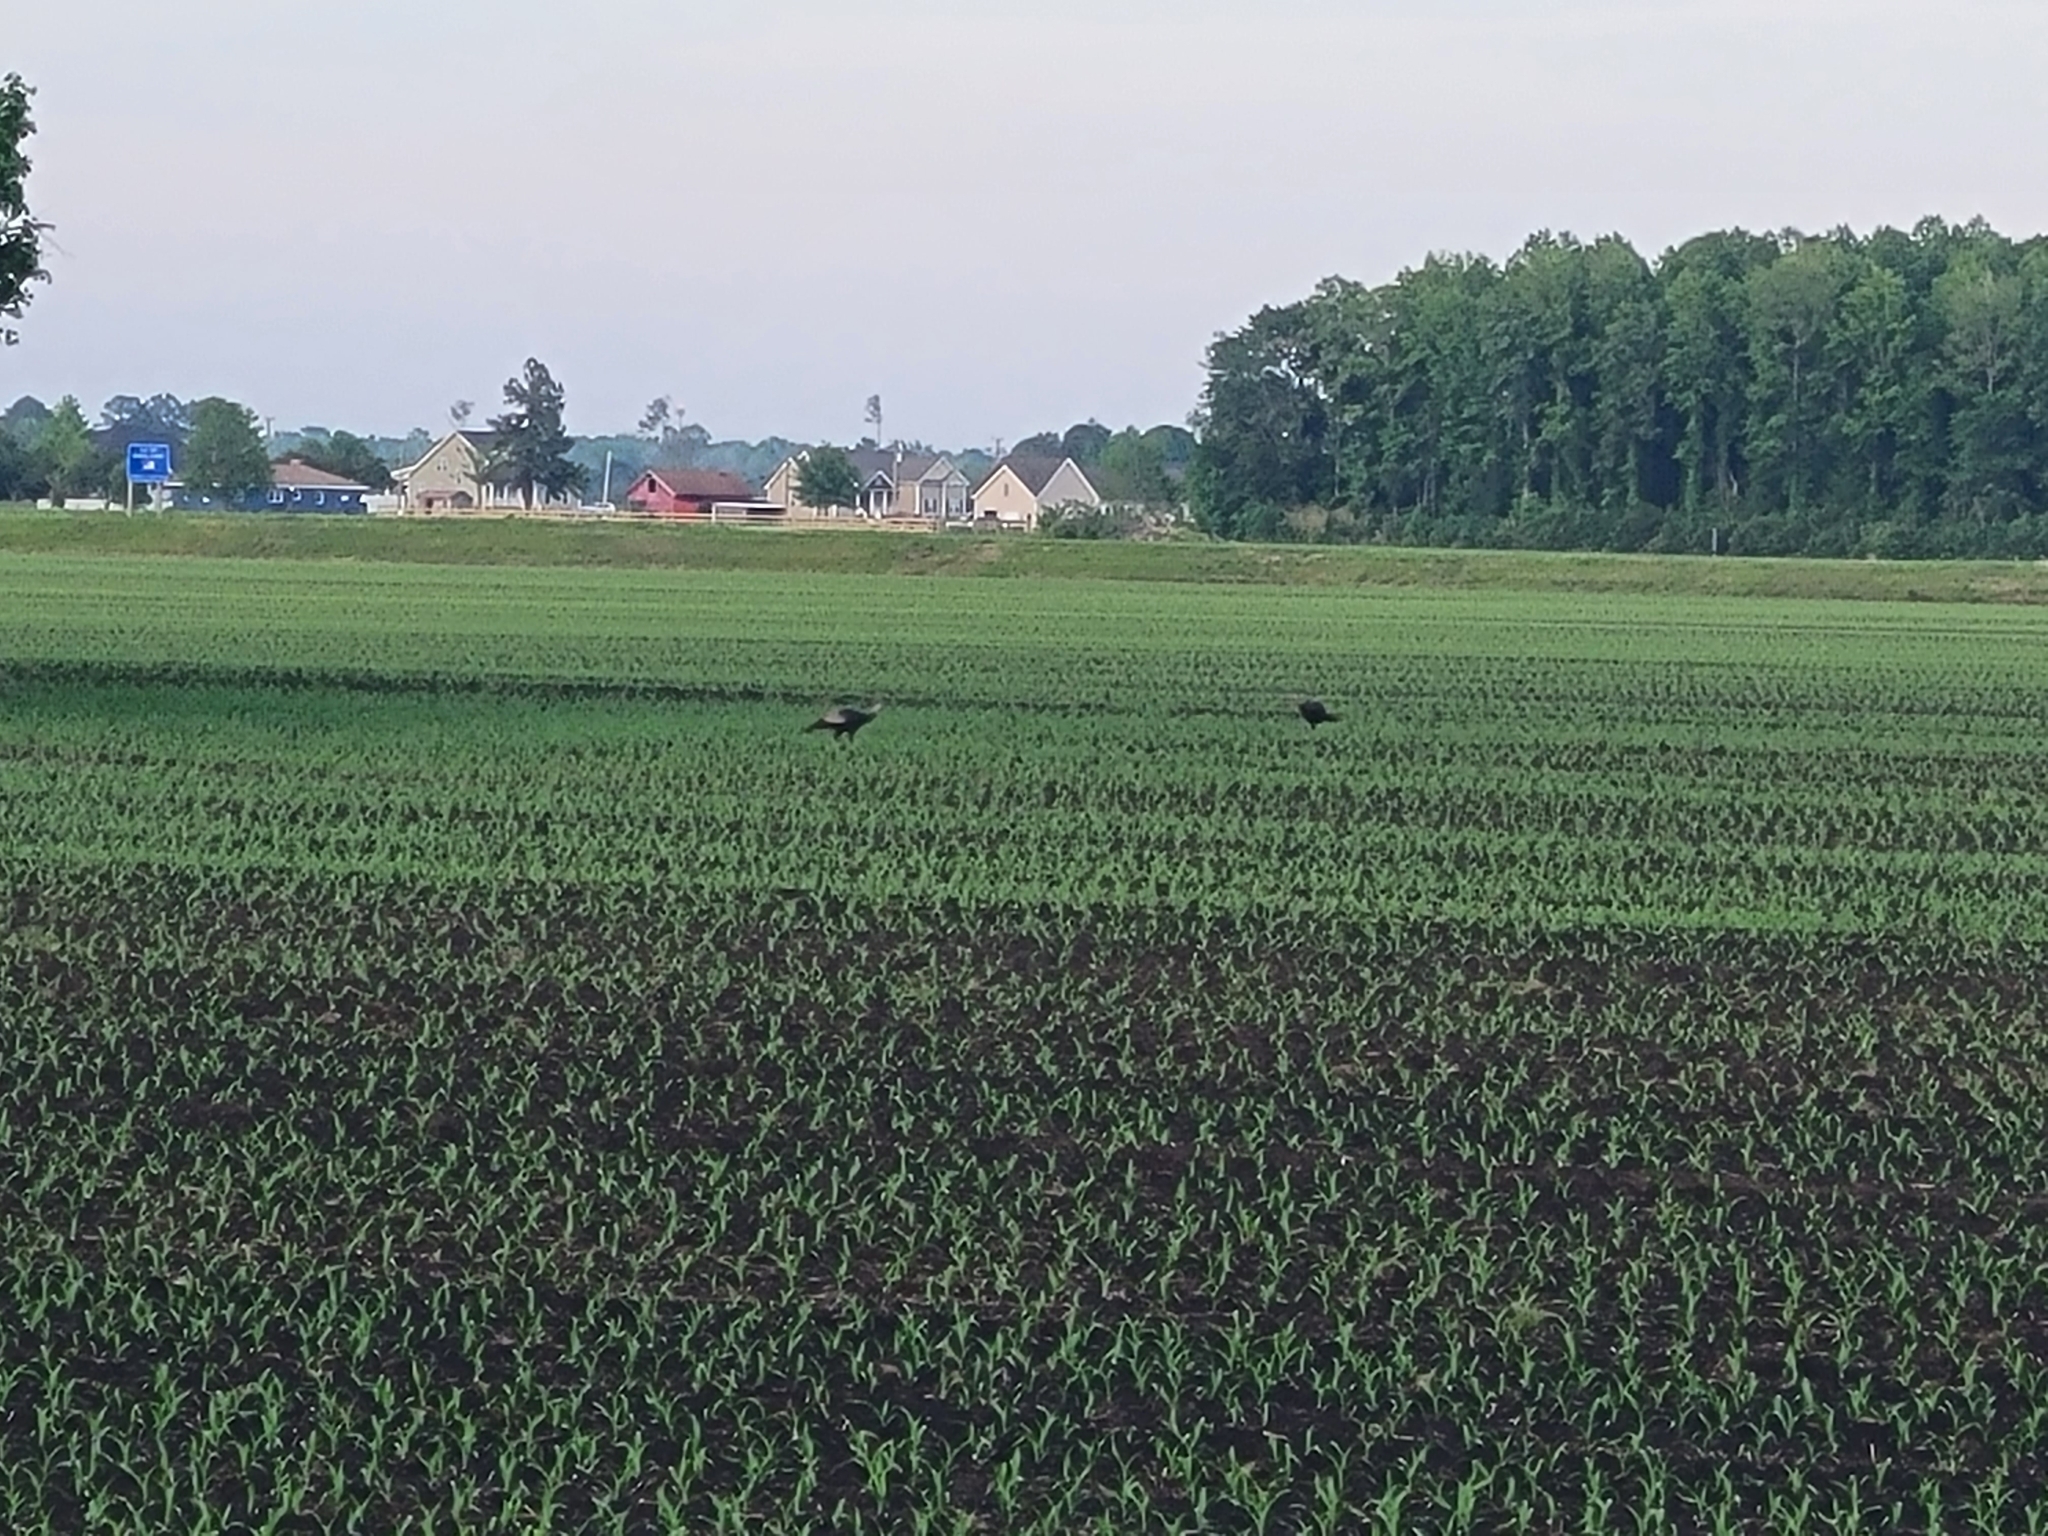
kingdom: Animalia
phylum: Chordata
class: Aves
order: Galliformes
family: Phasianidae
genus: Meleagris
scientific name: Meleagris gallopavo
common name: Wild turkey
